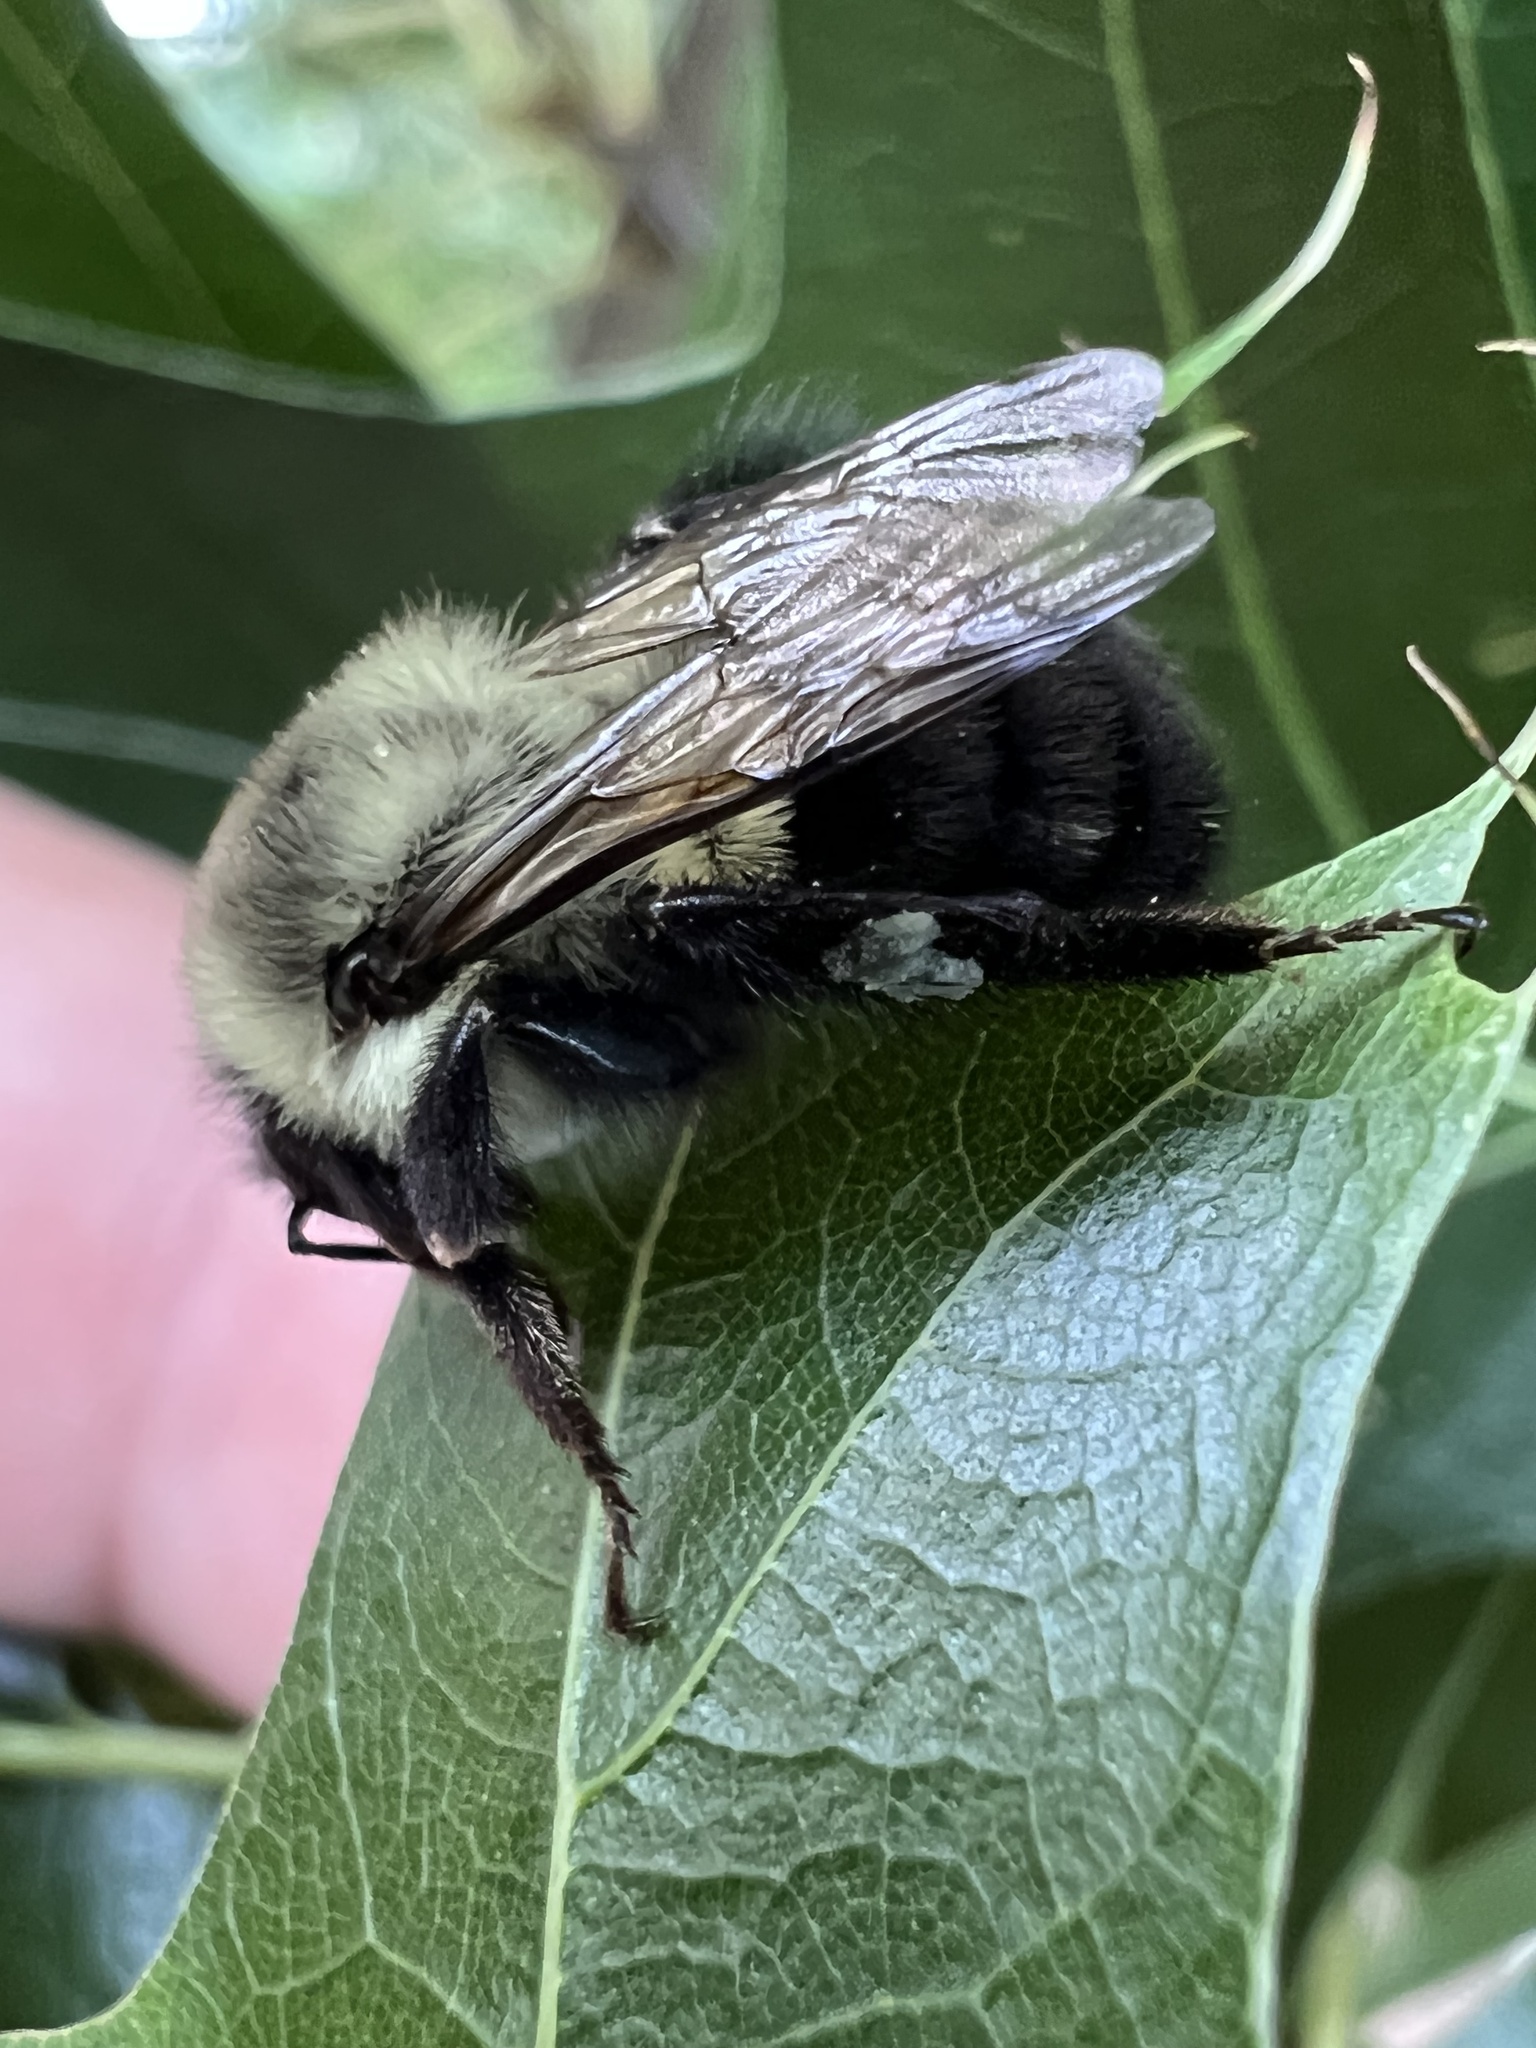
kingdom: Animalia
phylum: Arthropoda
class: Insecta
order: Hymenoptera
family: Apidae
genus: Bombus
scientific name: Bombus impatiens
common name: Common eastern bumble bee
